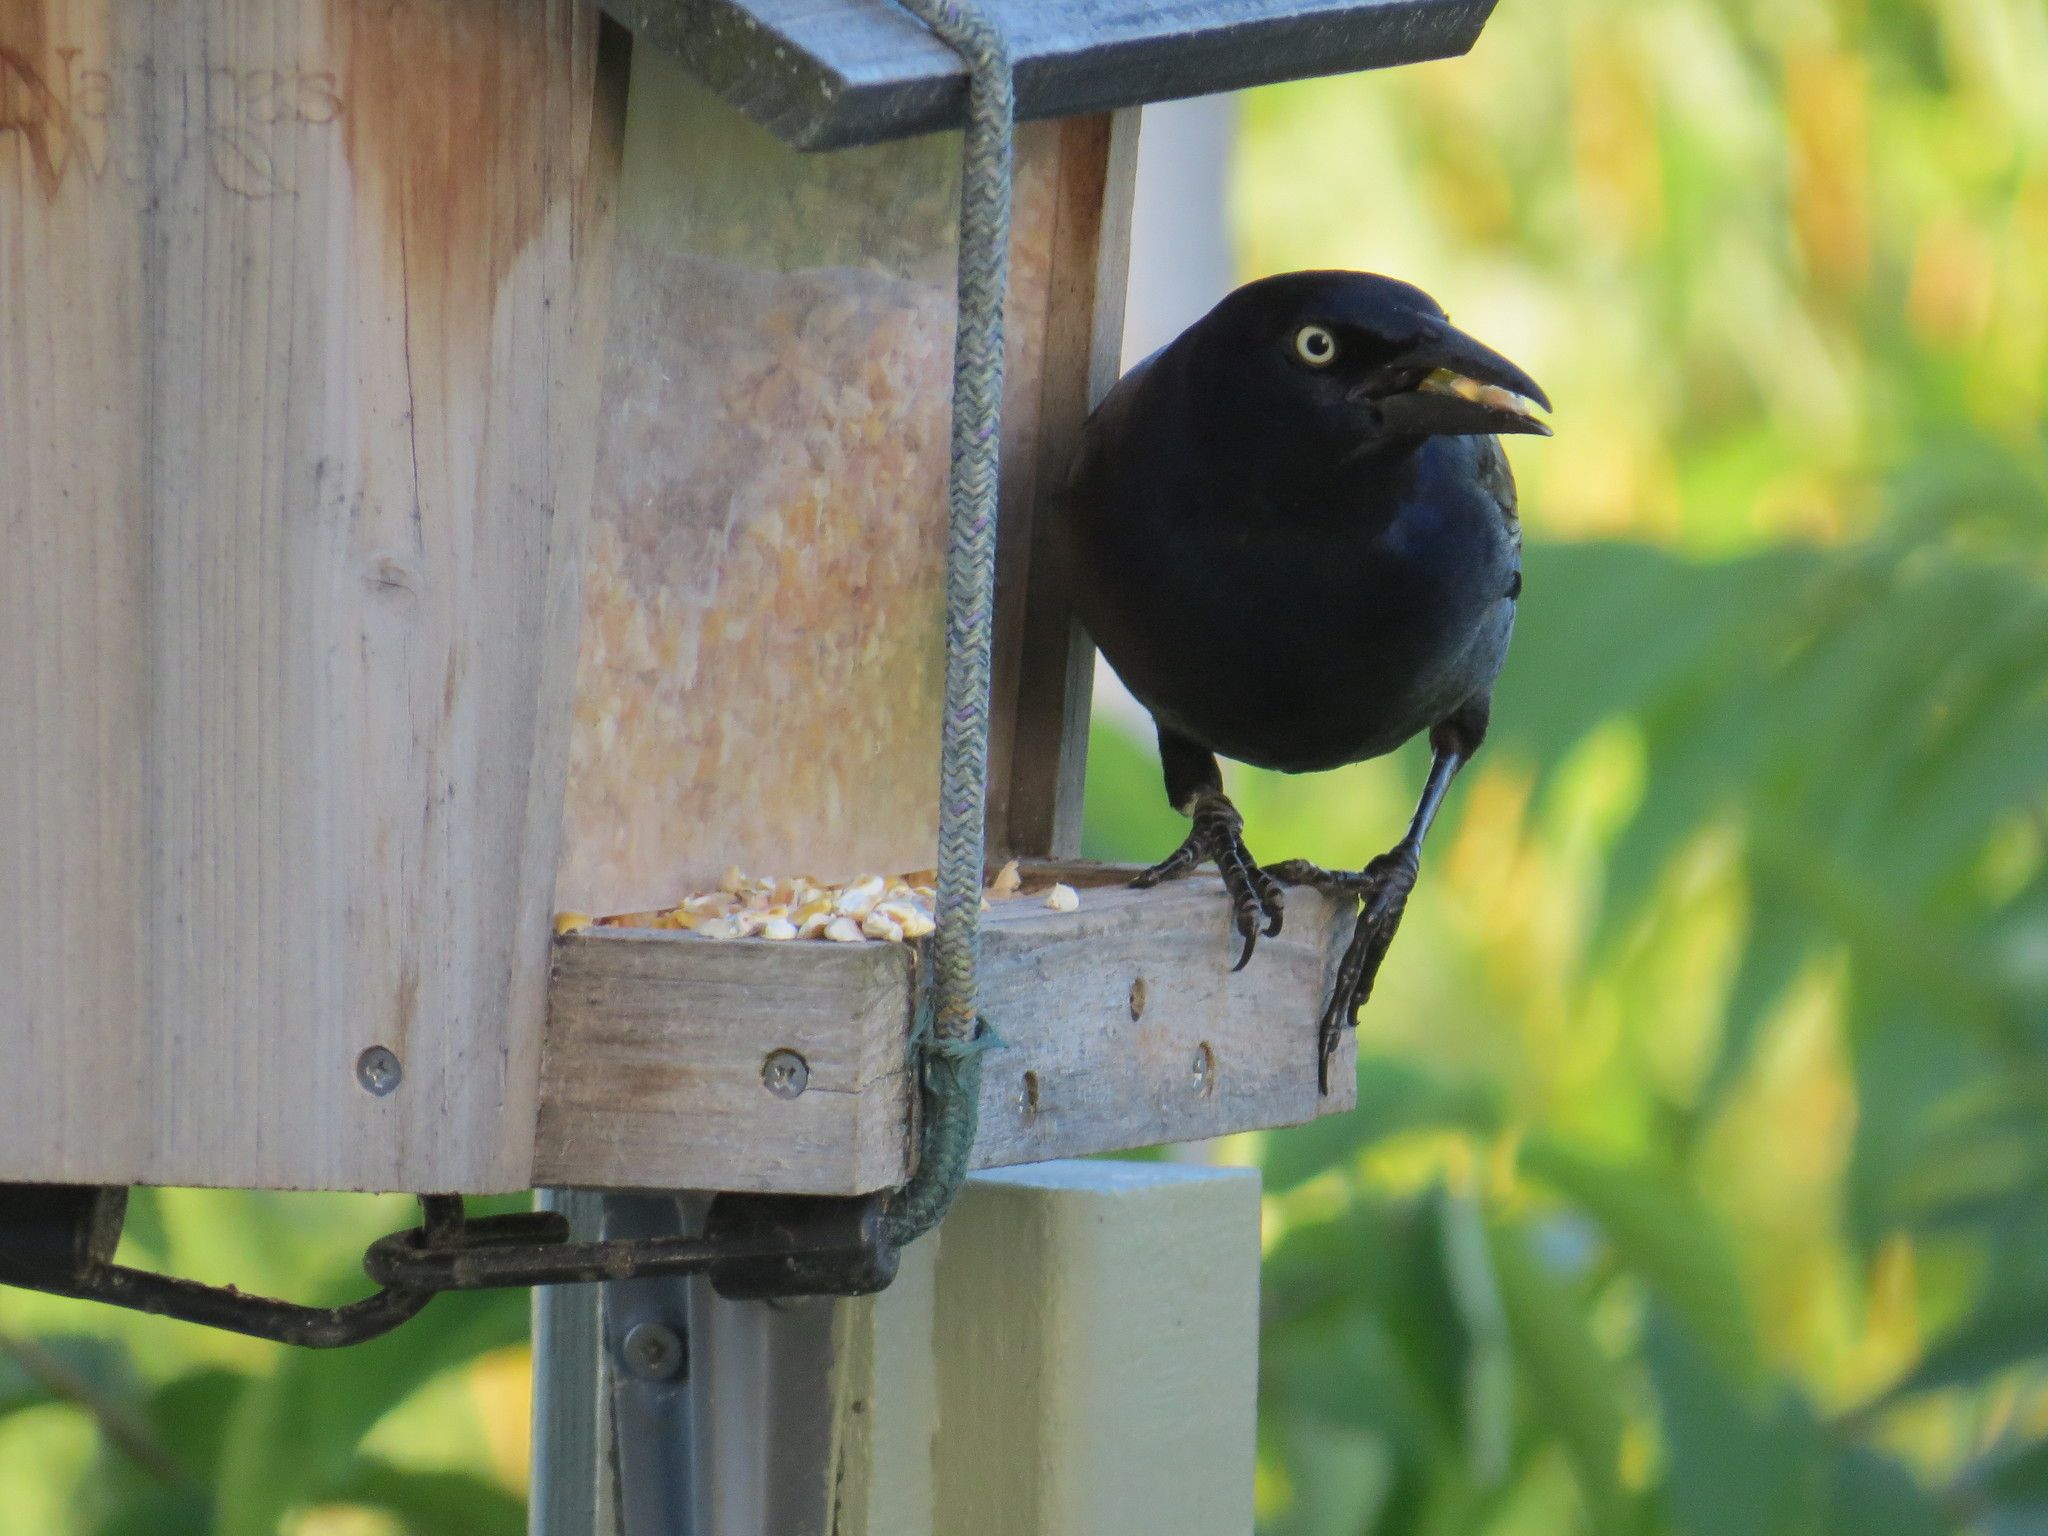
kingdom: Animalia
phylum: Chordata
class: Aves
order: Passeriformes
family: Icteridae
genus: Quiscalus
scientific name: Quiscalus quiscula
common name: Common grackle
